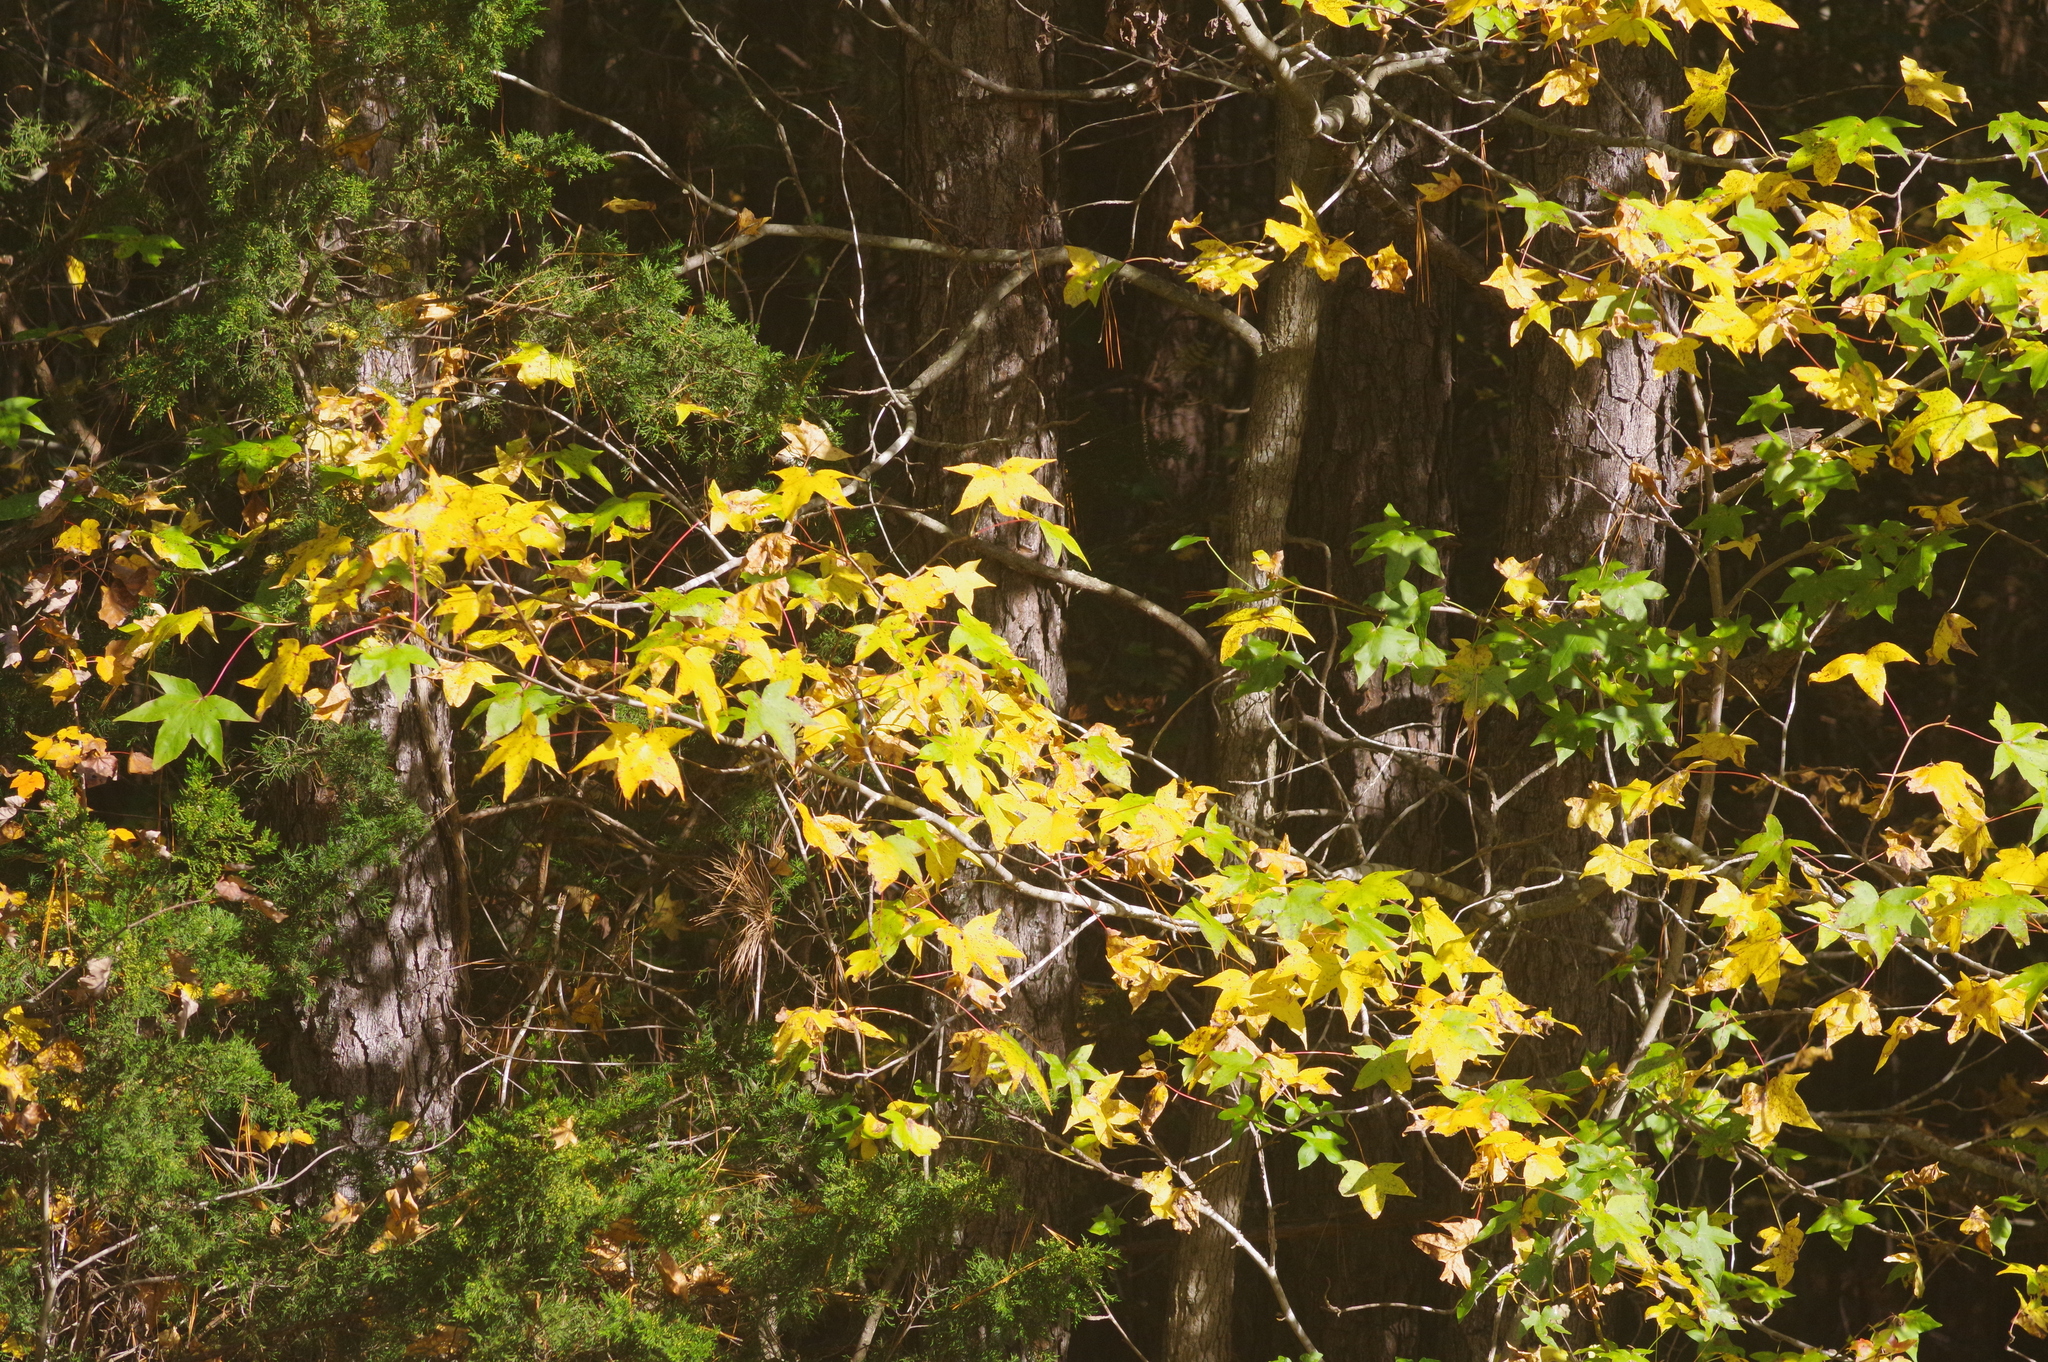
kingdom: Plantae
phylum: Tracheophyta
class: Magnoliopsida
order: Saxifragales
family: Altingiaceae
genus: Liquidambar
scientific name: Liquidambar styraciflua
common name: Sweet gum
